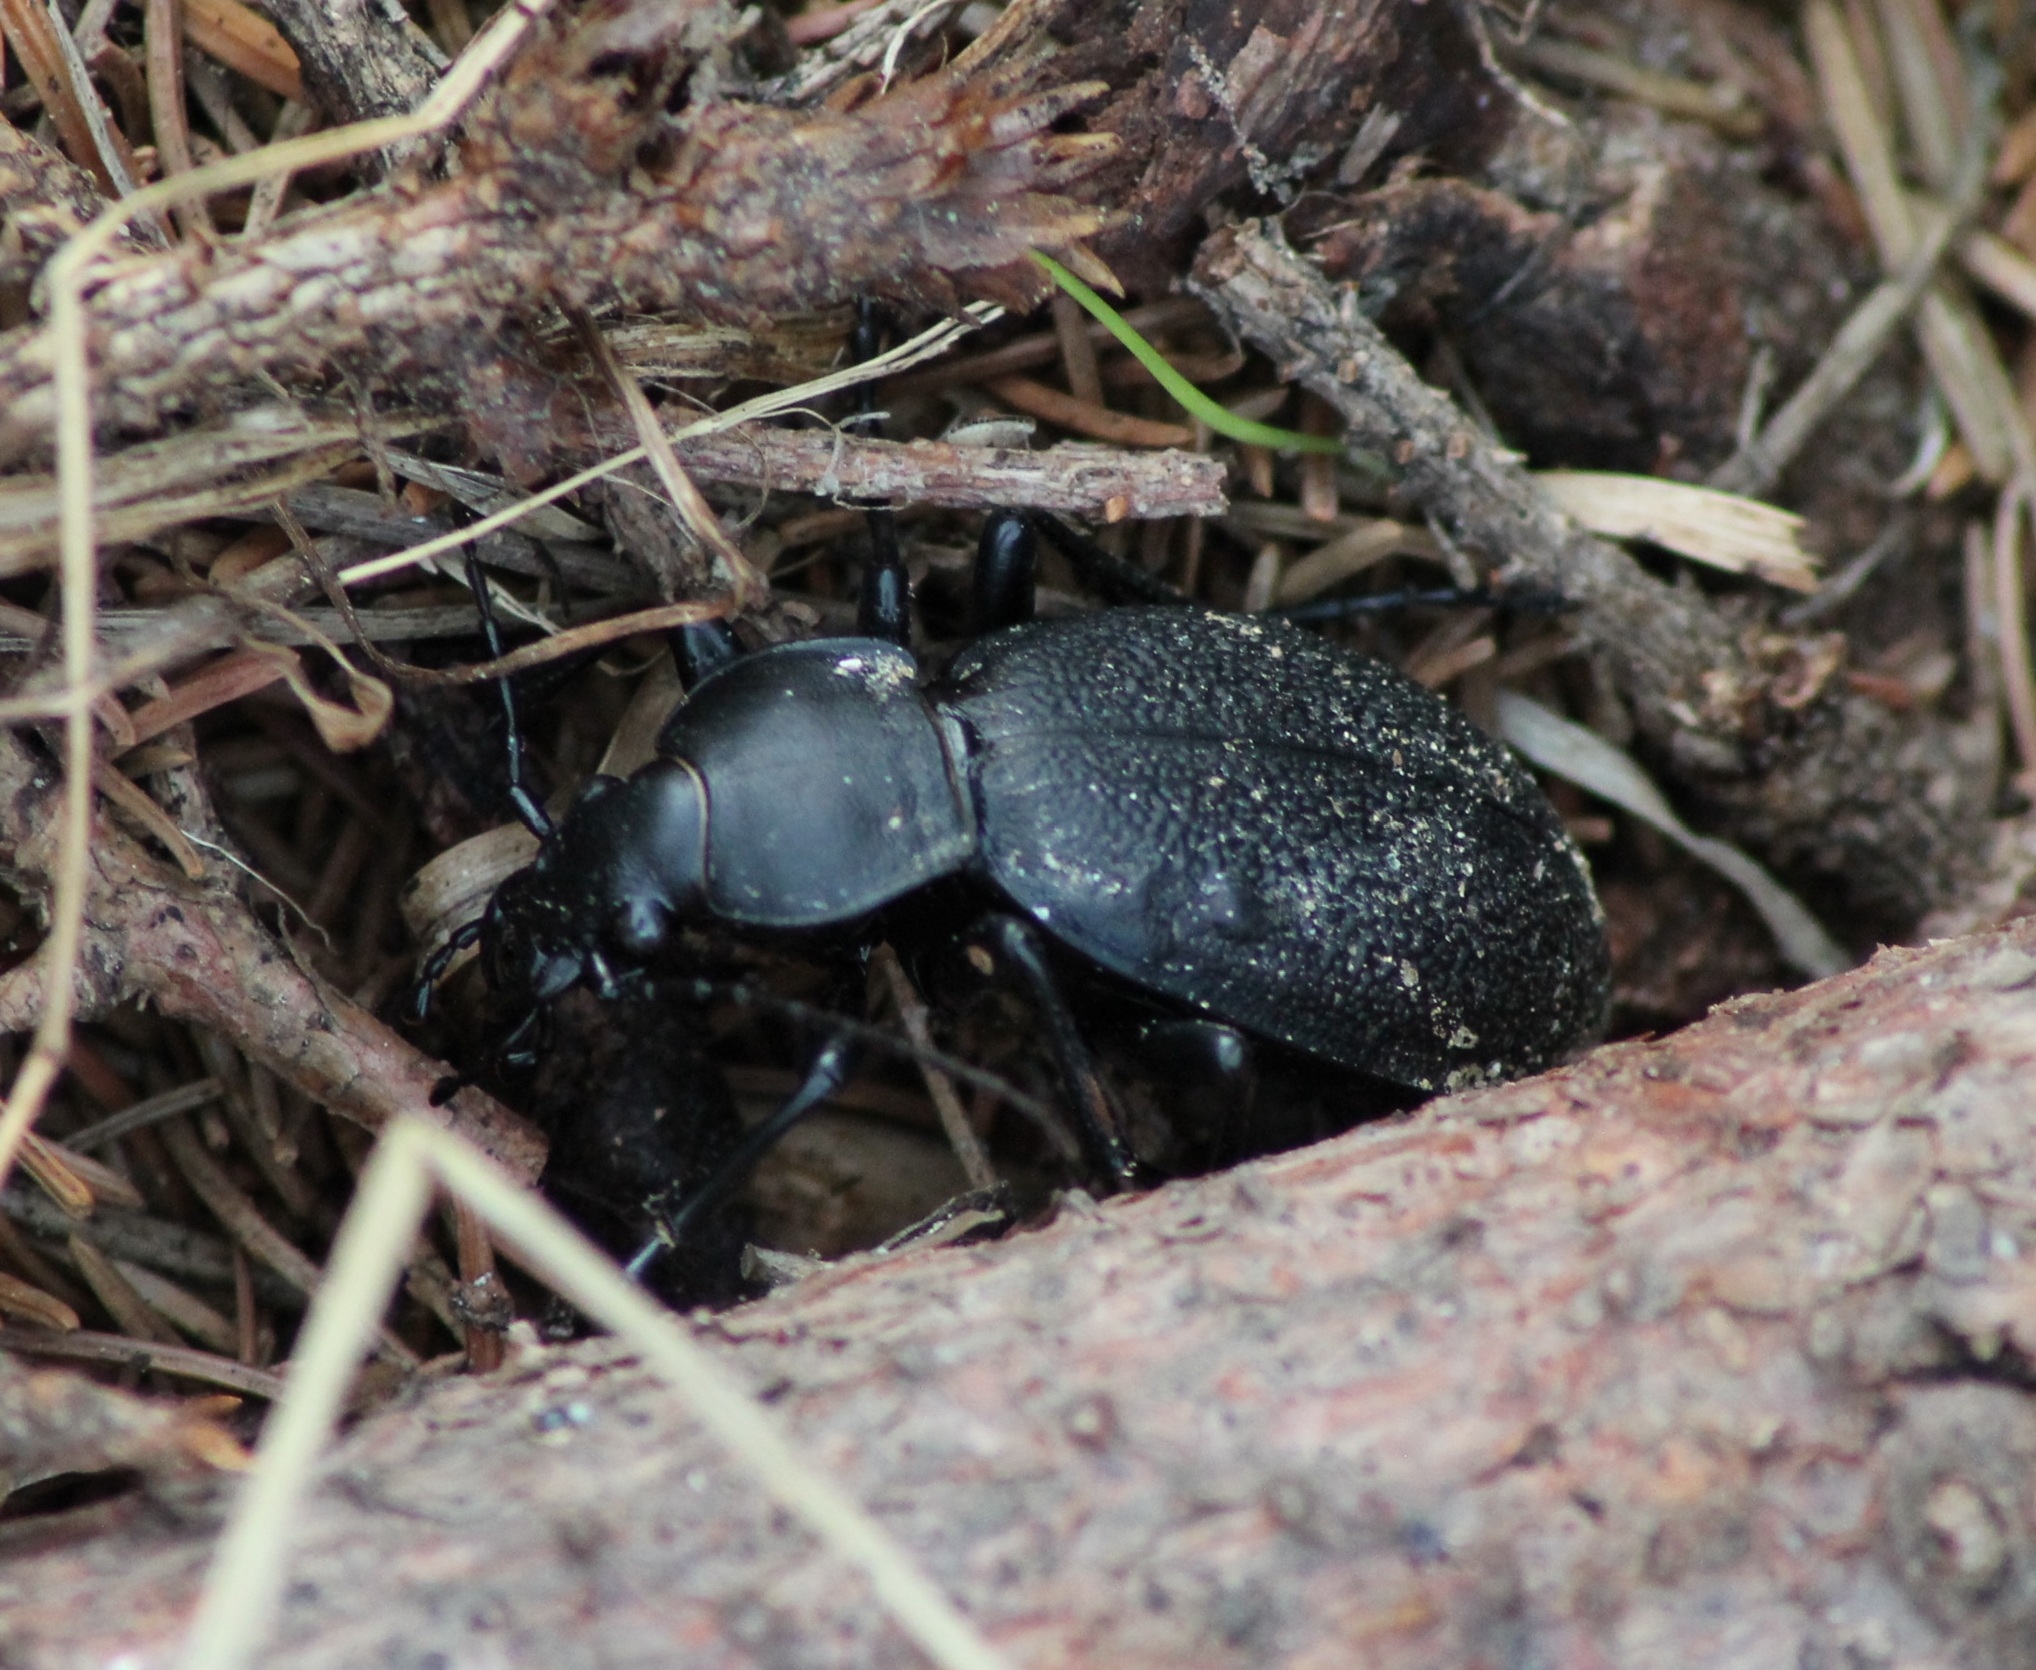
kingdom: Animalia
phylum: Arthropoda
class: Insecta
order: Coleoptera
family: Carabidae
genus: Carabus
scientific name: Carabus coriaceus
